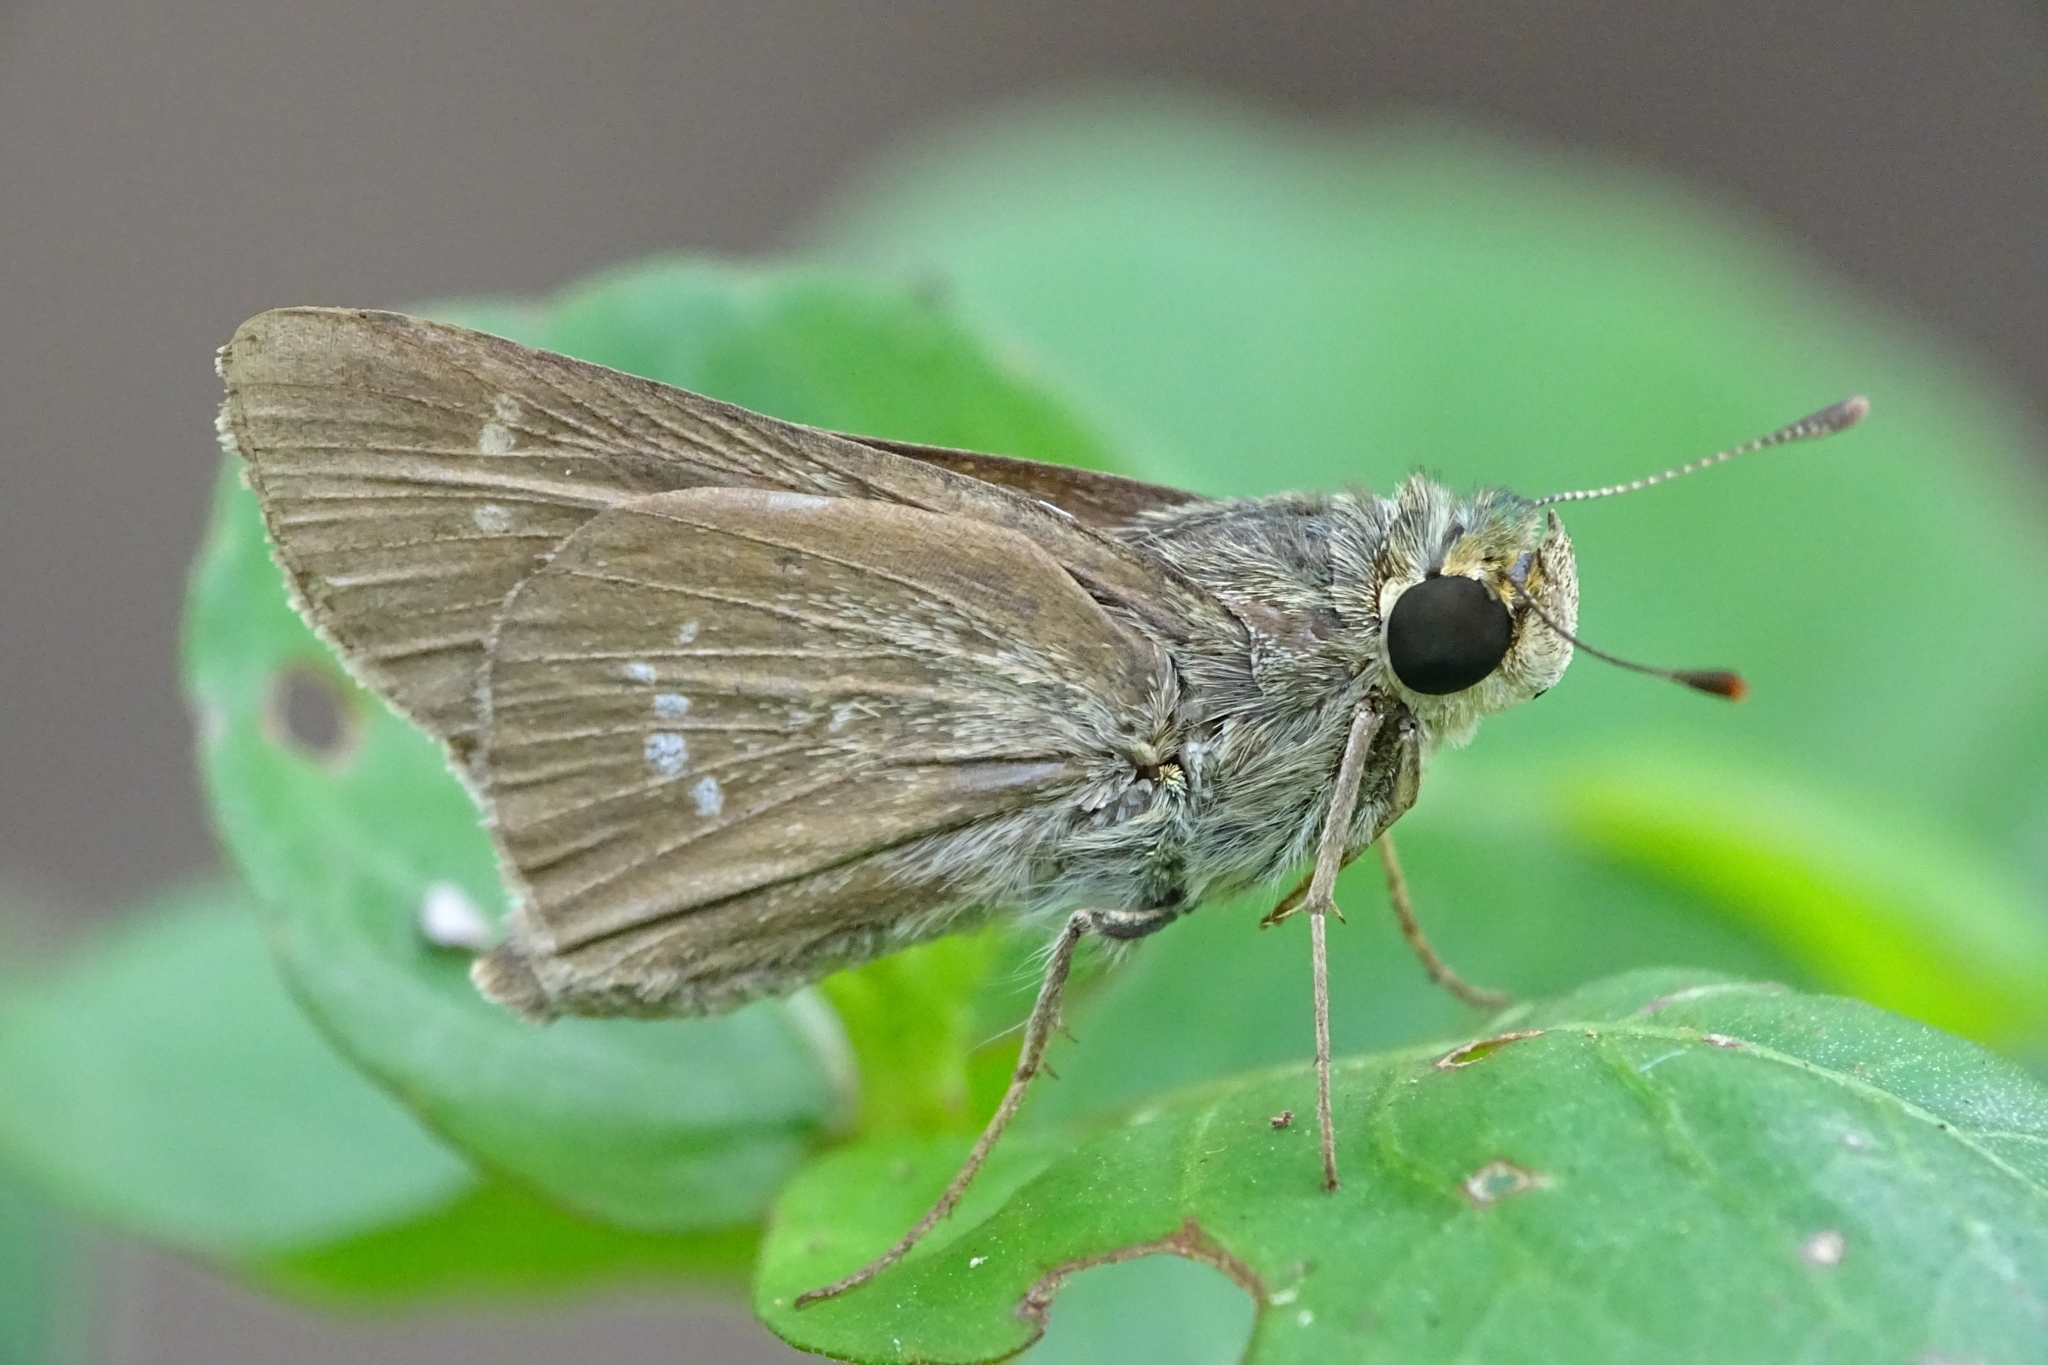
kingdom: Animalia
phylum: Arthropoda
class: Insecta
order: Lepidoptera
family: Hesperiidae
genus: Parnara
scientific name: Parnara naso
